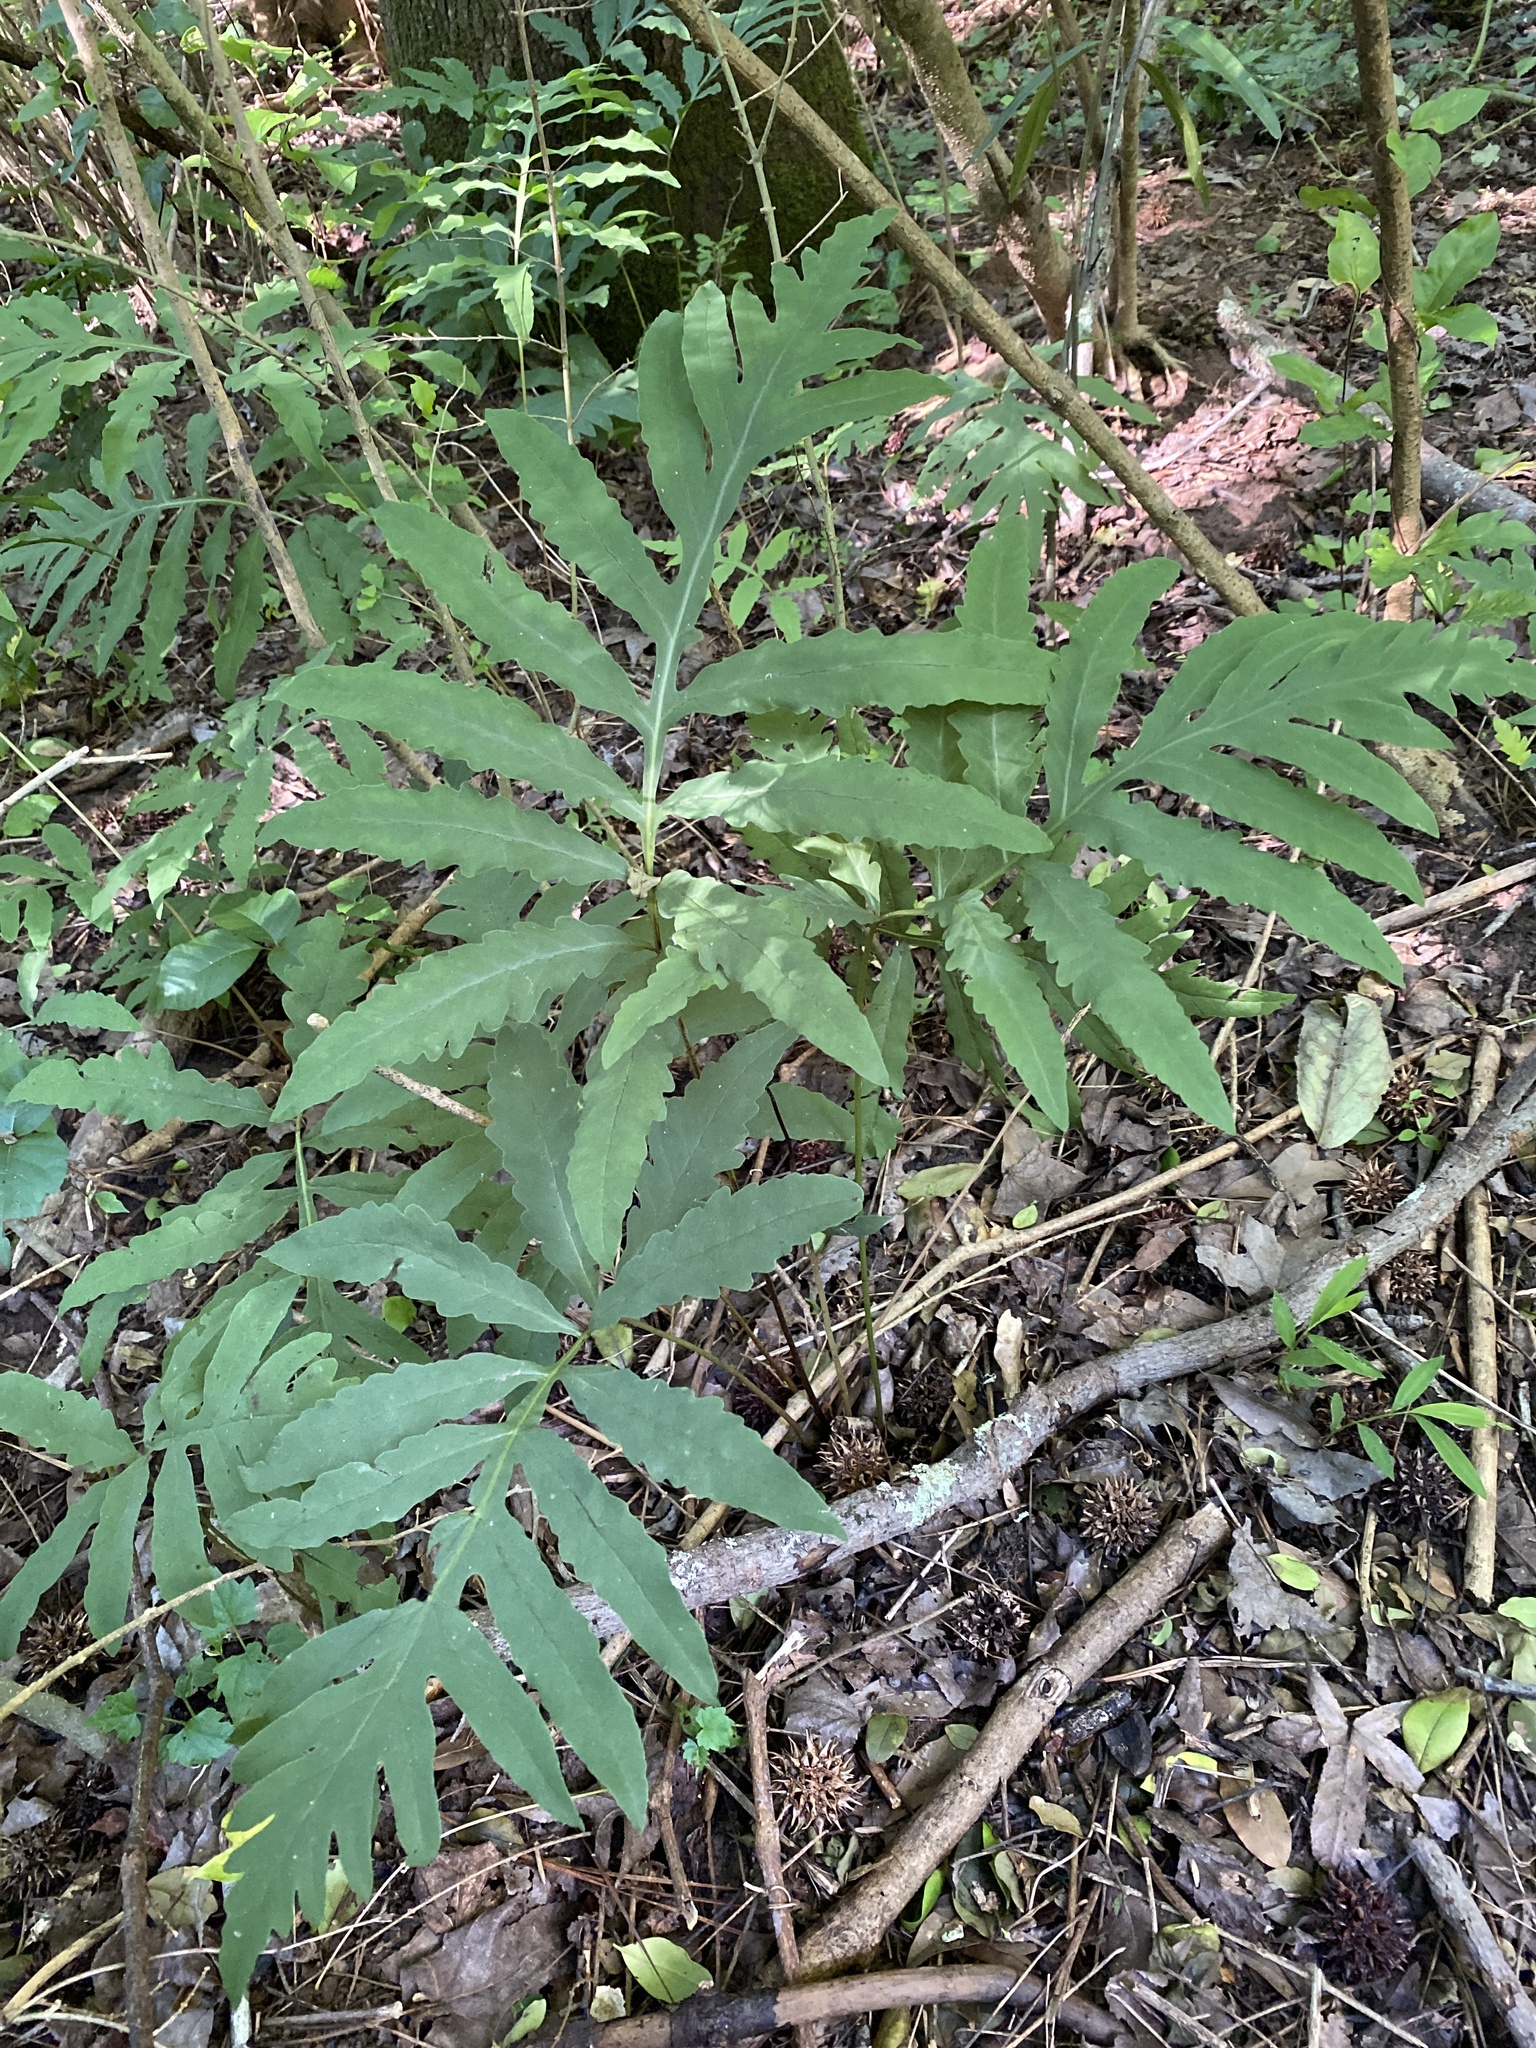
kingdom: Plantae
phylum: Tracheophyta
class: Polypodiopsida
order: Polypodiales
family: Onocleaceae
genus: Onoclea
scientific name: Onoclea sensibilis
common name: Sensitive fern
